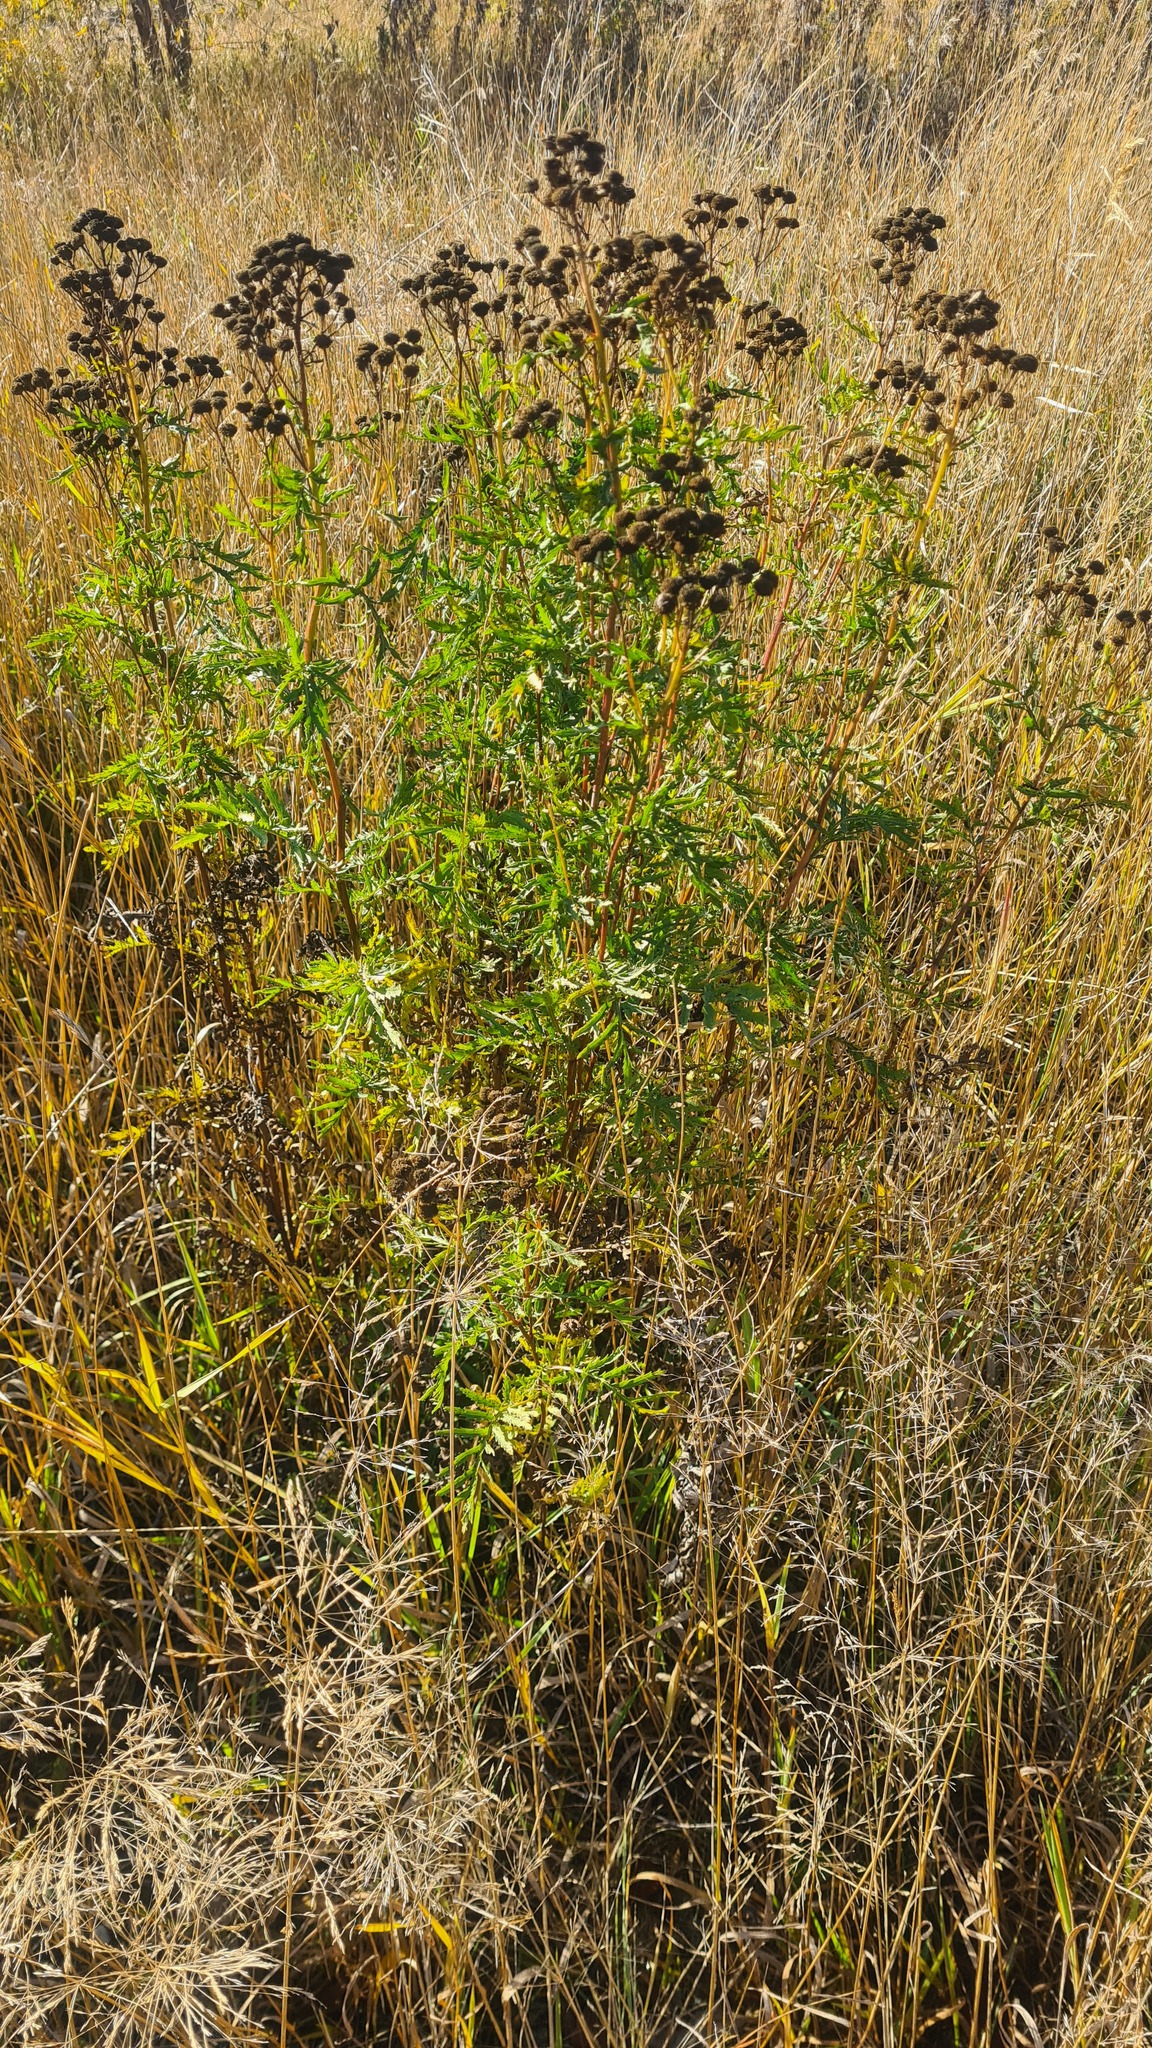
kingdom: Plantae
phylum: Tracheophyta
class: Magnoliopsida
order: Asterales
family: Asteraceae
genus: Tanacetum
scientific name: Tanacetum vulgare
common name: Common tansy
